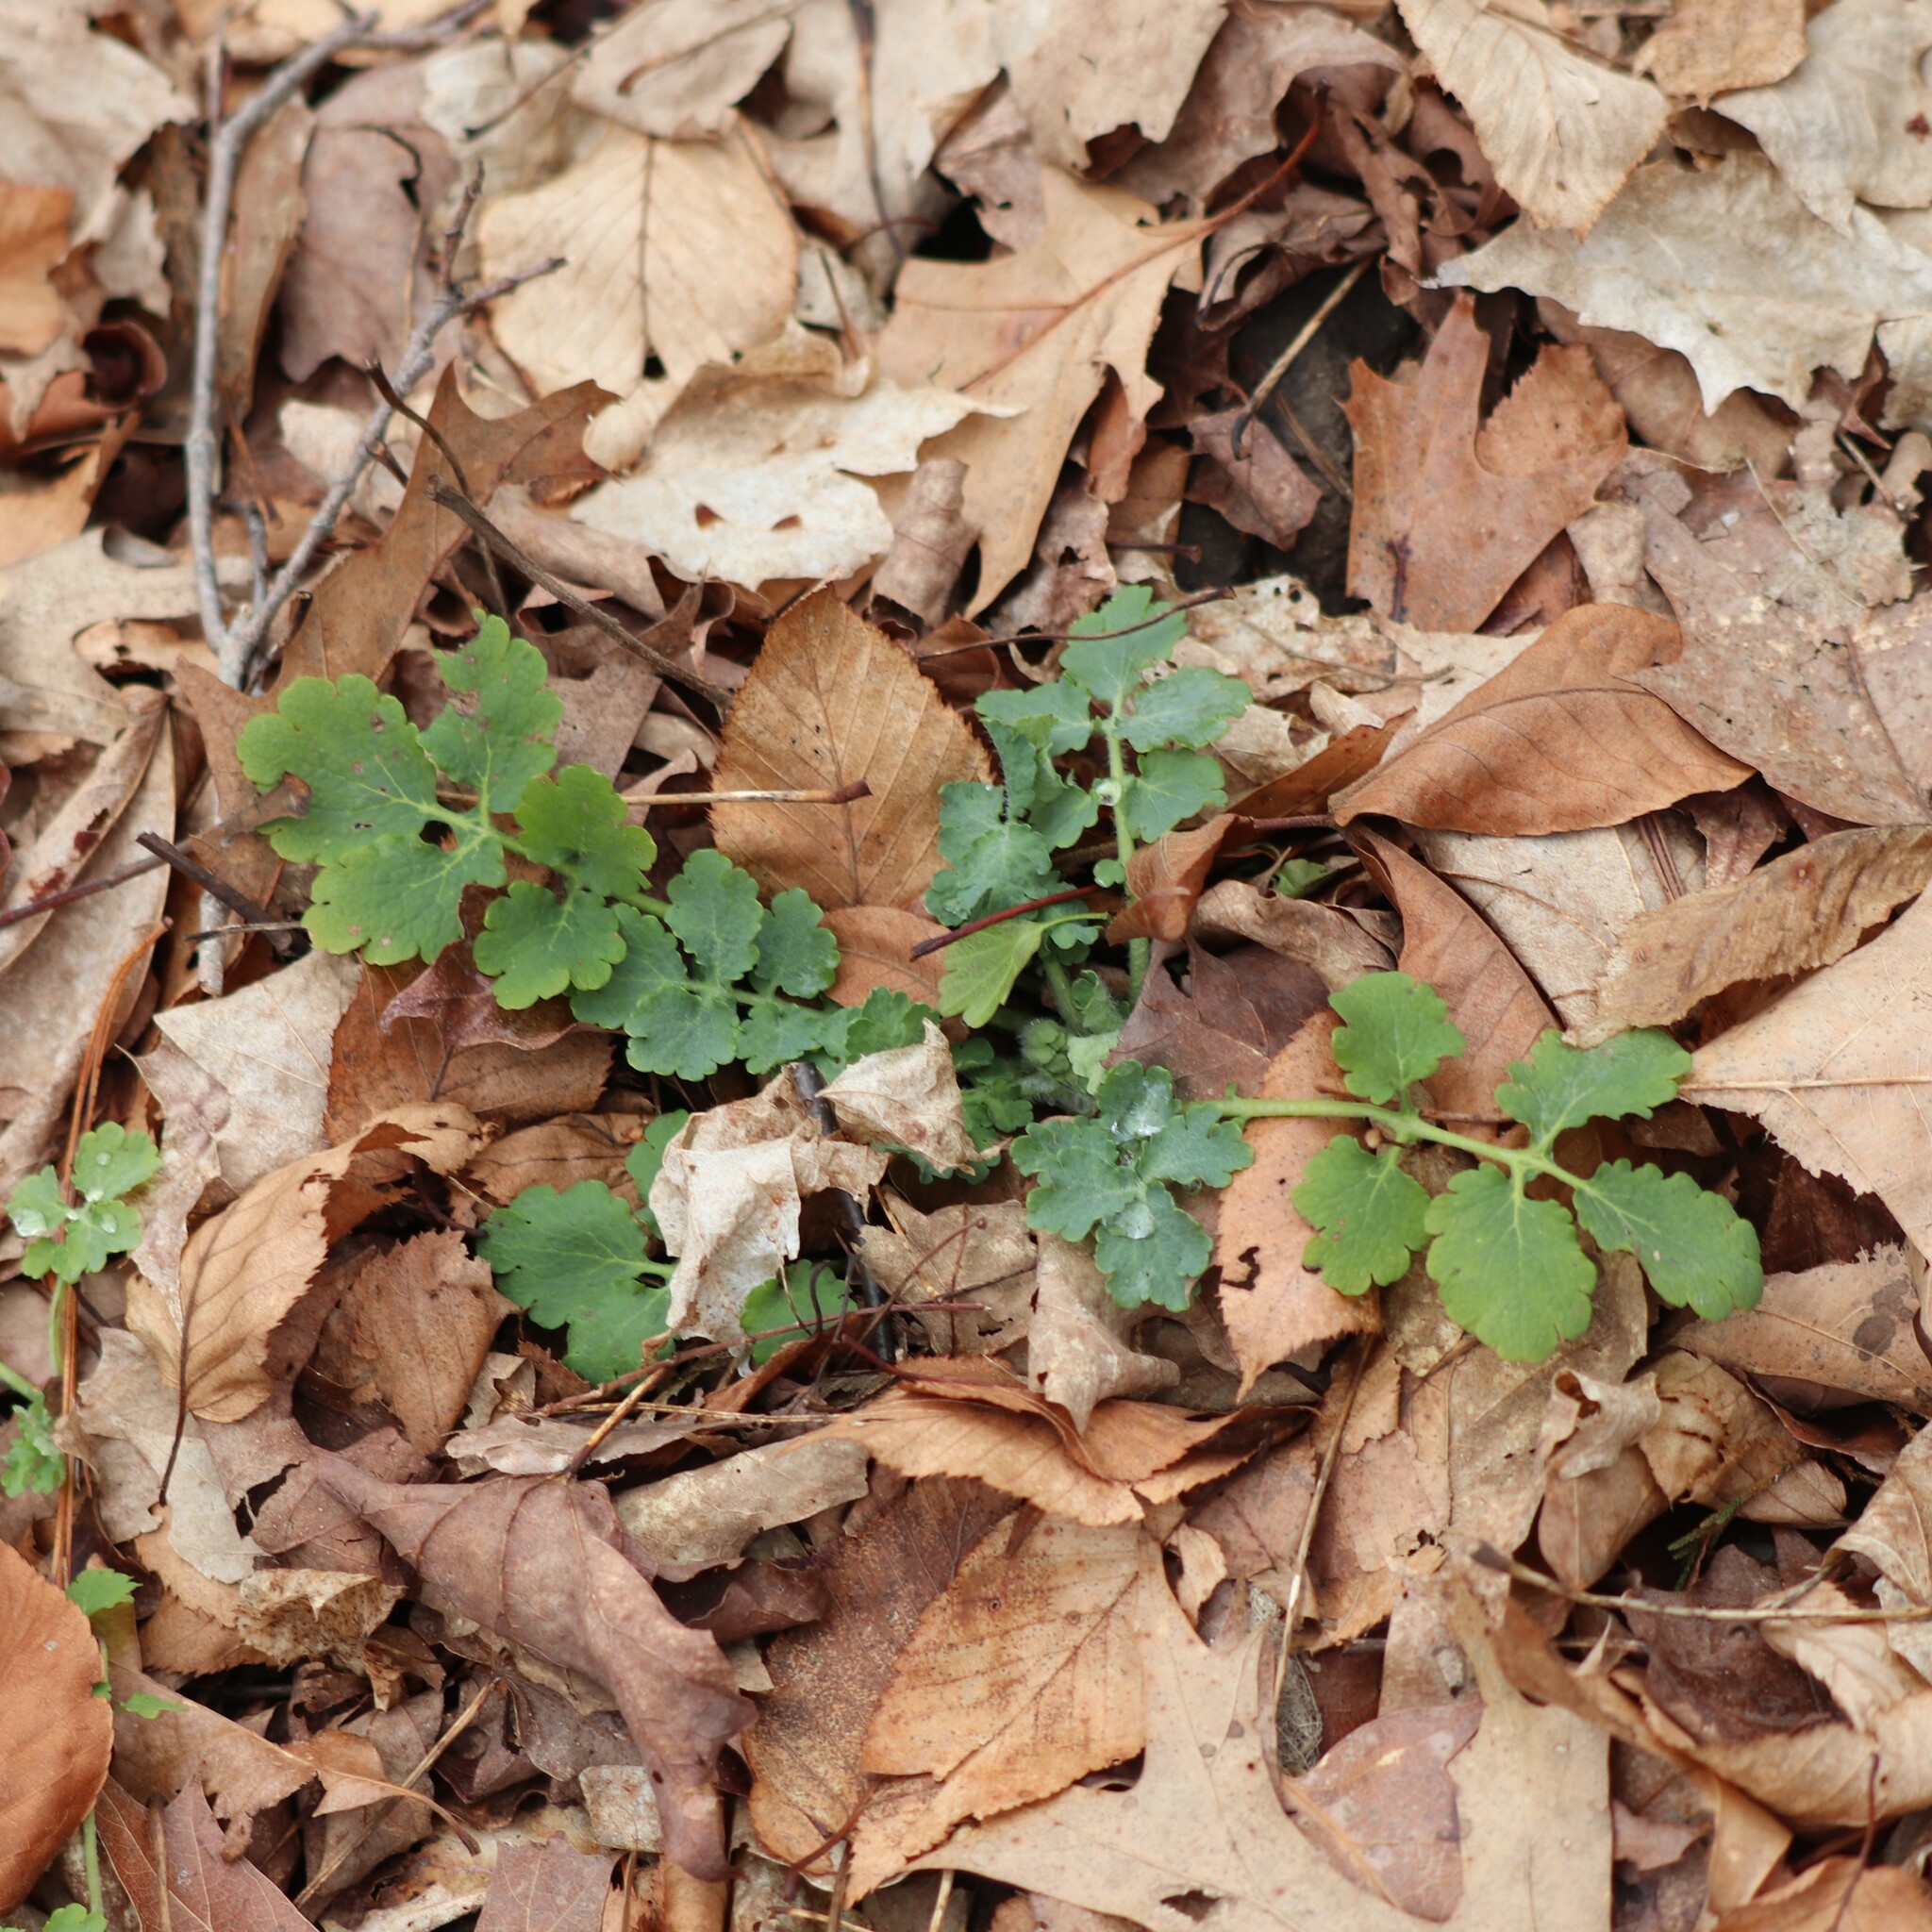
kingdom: Plantae
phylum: Tracheophyta
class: Magnoliopsida
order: Ranunculales
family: Papaveraceae
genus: Chelidonium
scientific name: Chelidonium majus
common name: Greater celandine
